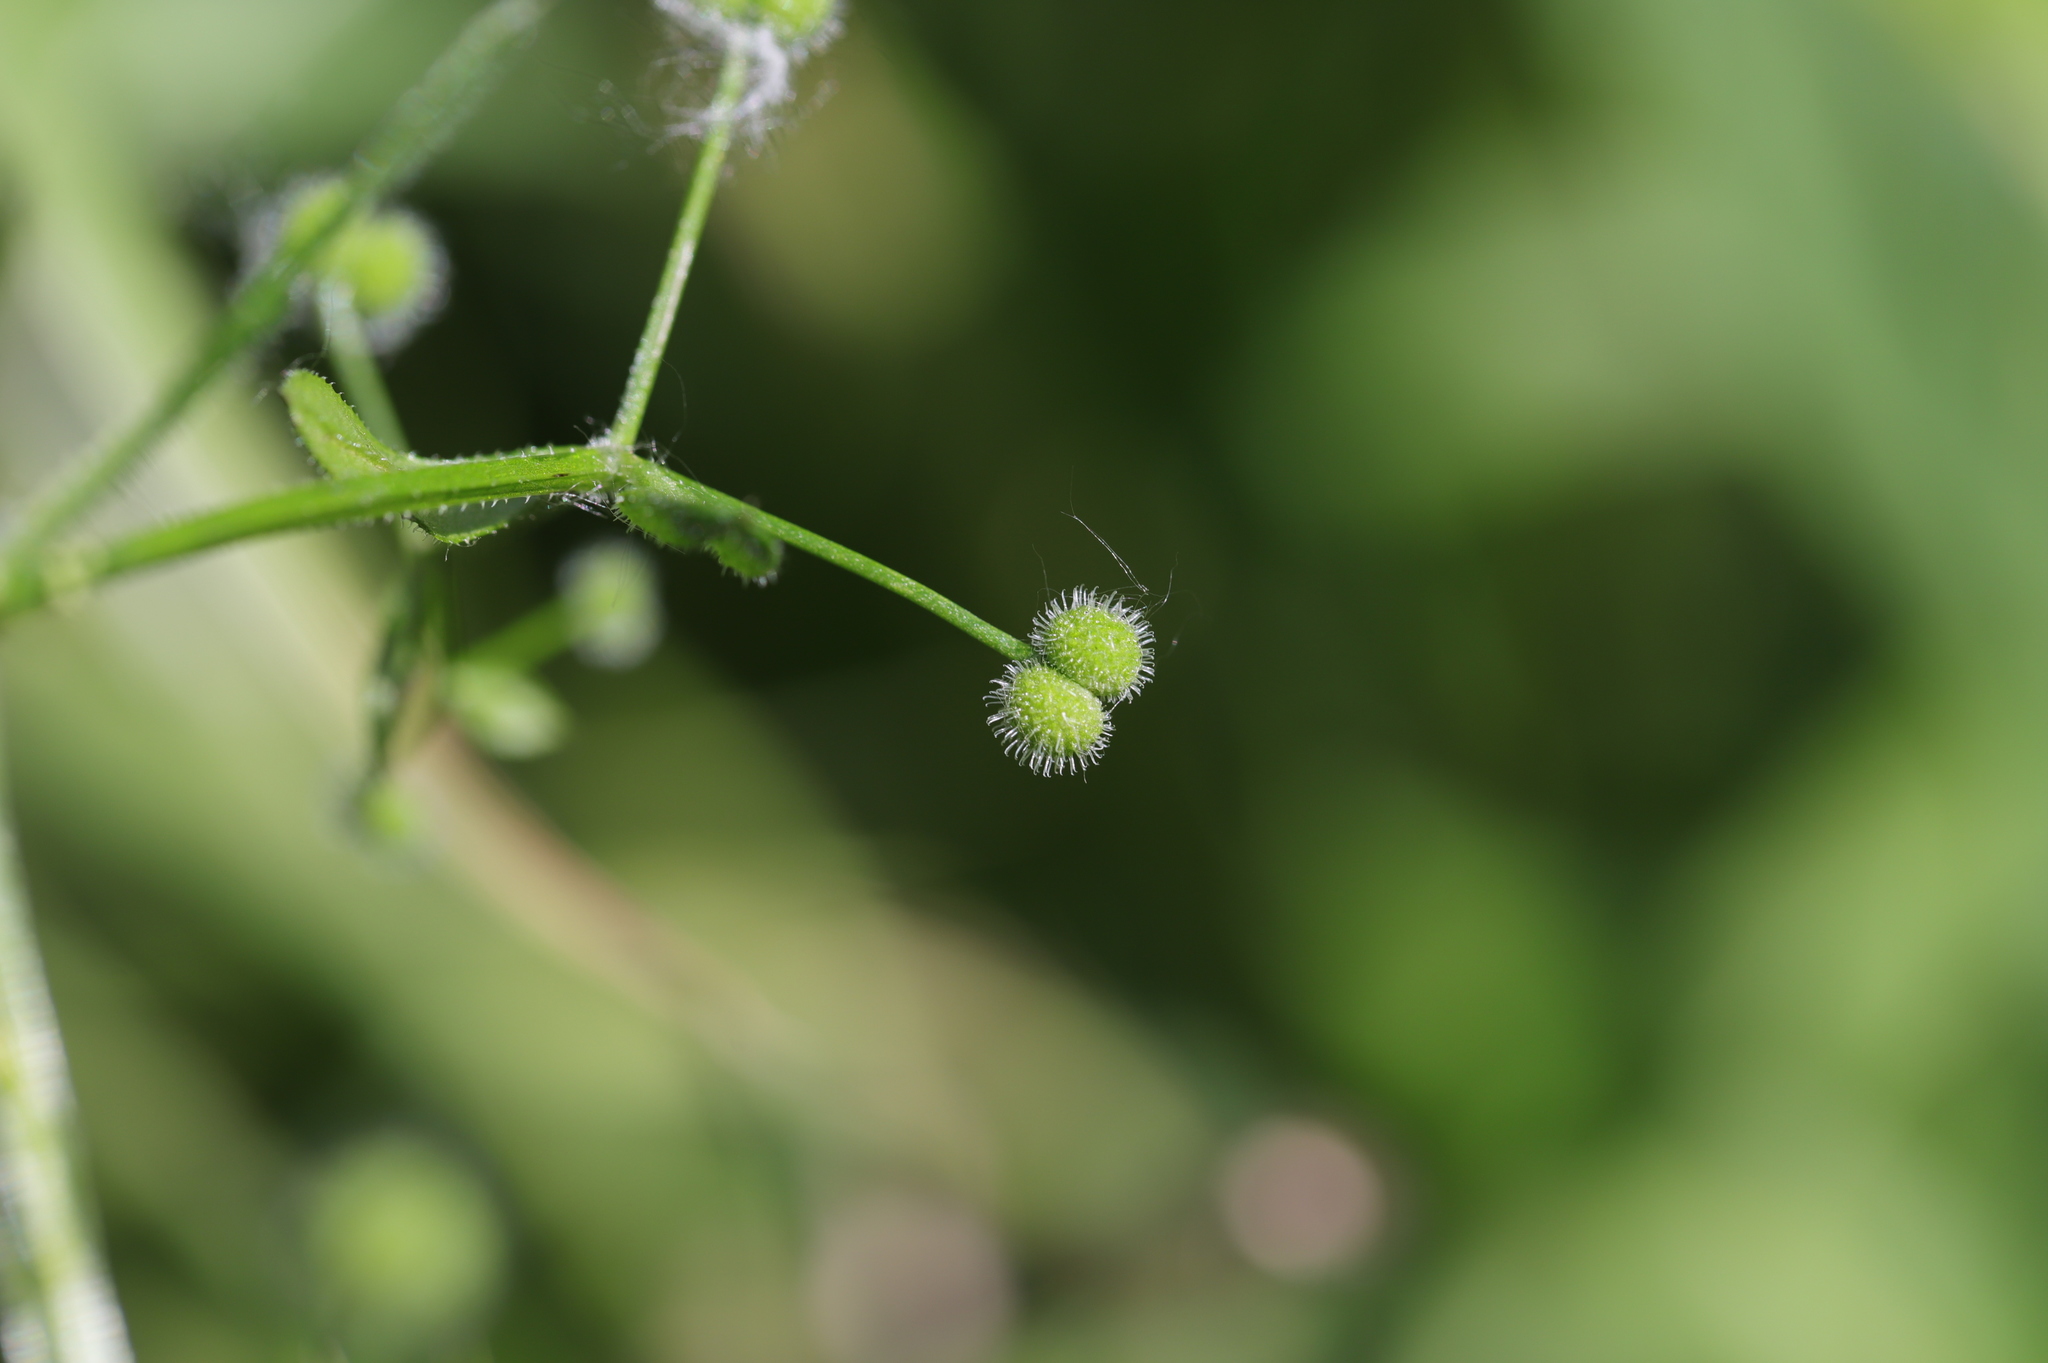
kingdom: Plantae
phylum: Tracheophyta
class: Magnoliopsida
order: Gentianales
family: Rubiaceae
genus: Galium
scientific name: Galium aparine
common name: Cleavers
